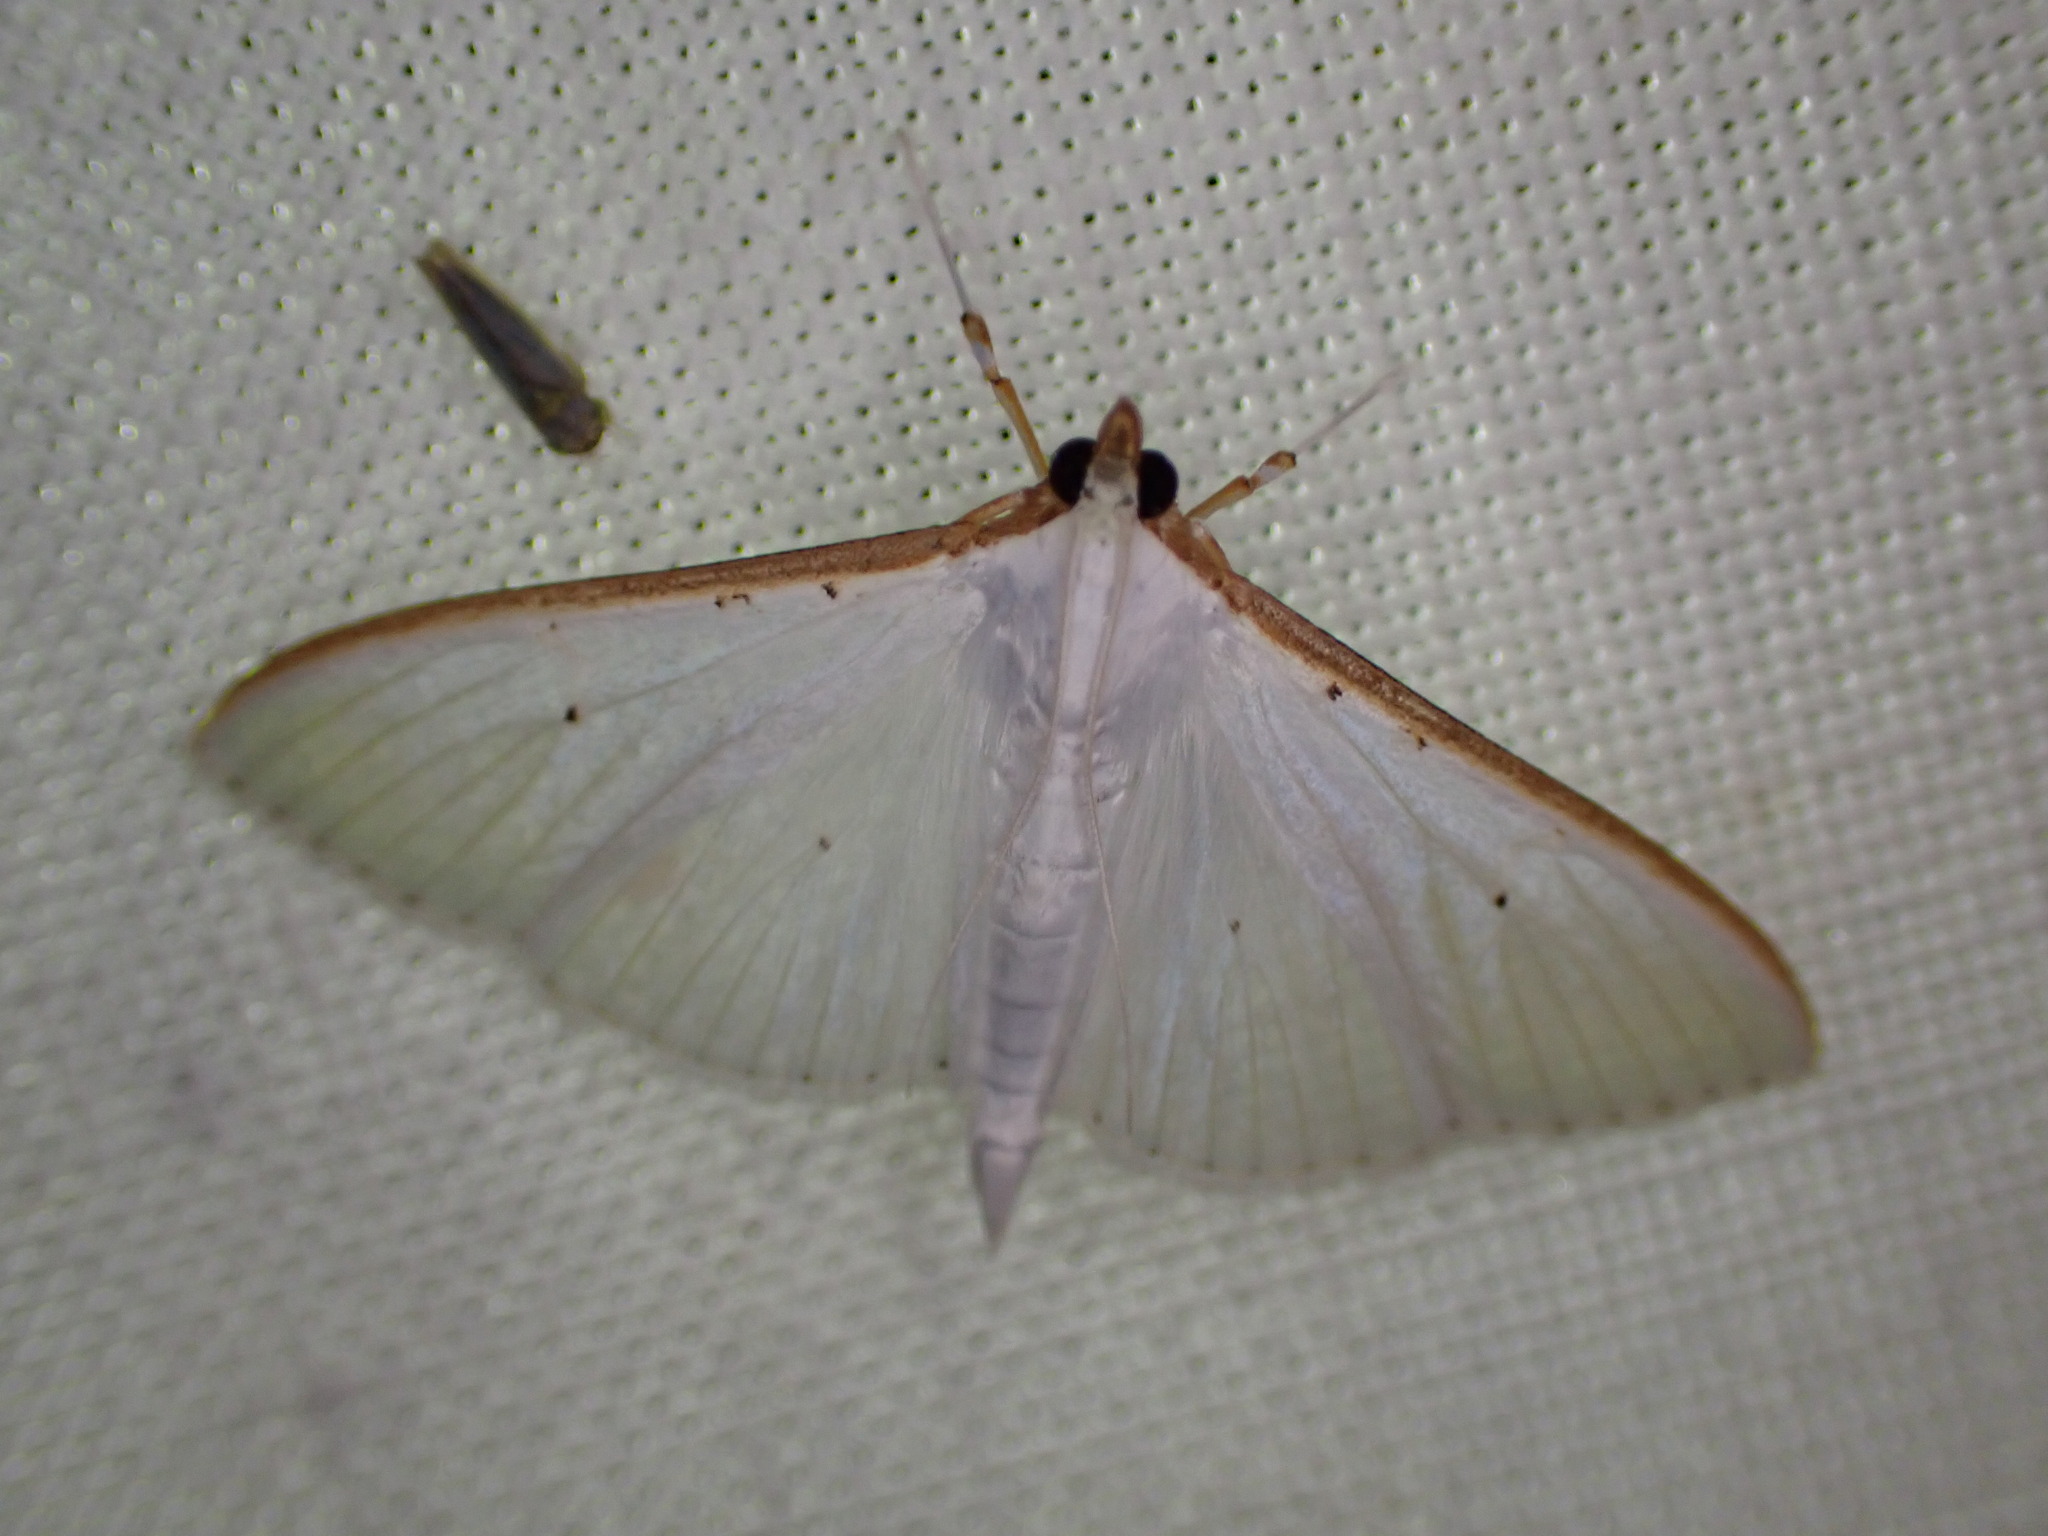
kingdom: Animalia
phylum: Arthropoda
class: Insecta
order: Lepidoptera
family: Crambidae
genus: Palpita
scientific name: Palpita vitrealis
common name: Olive-tree pearl
